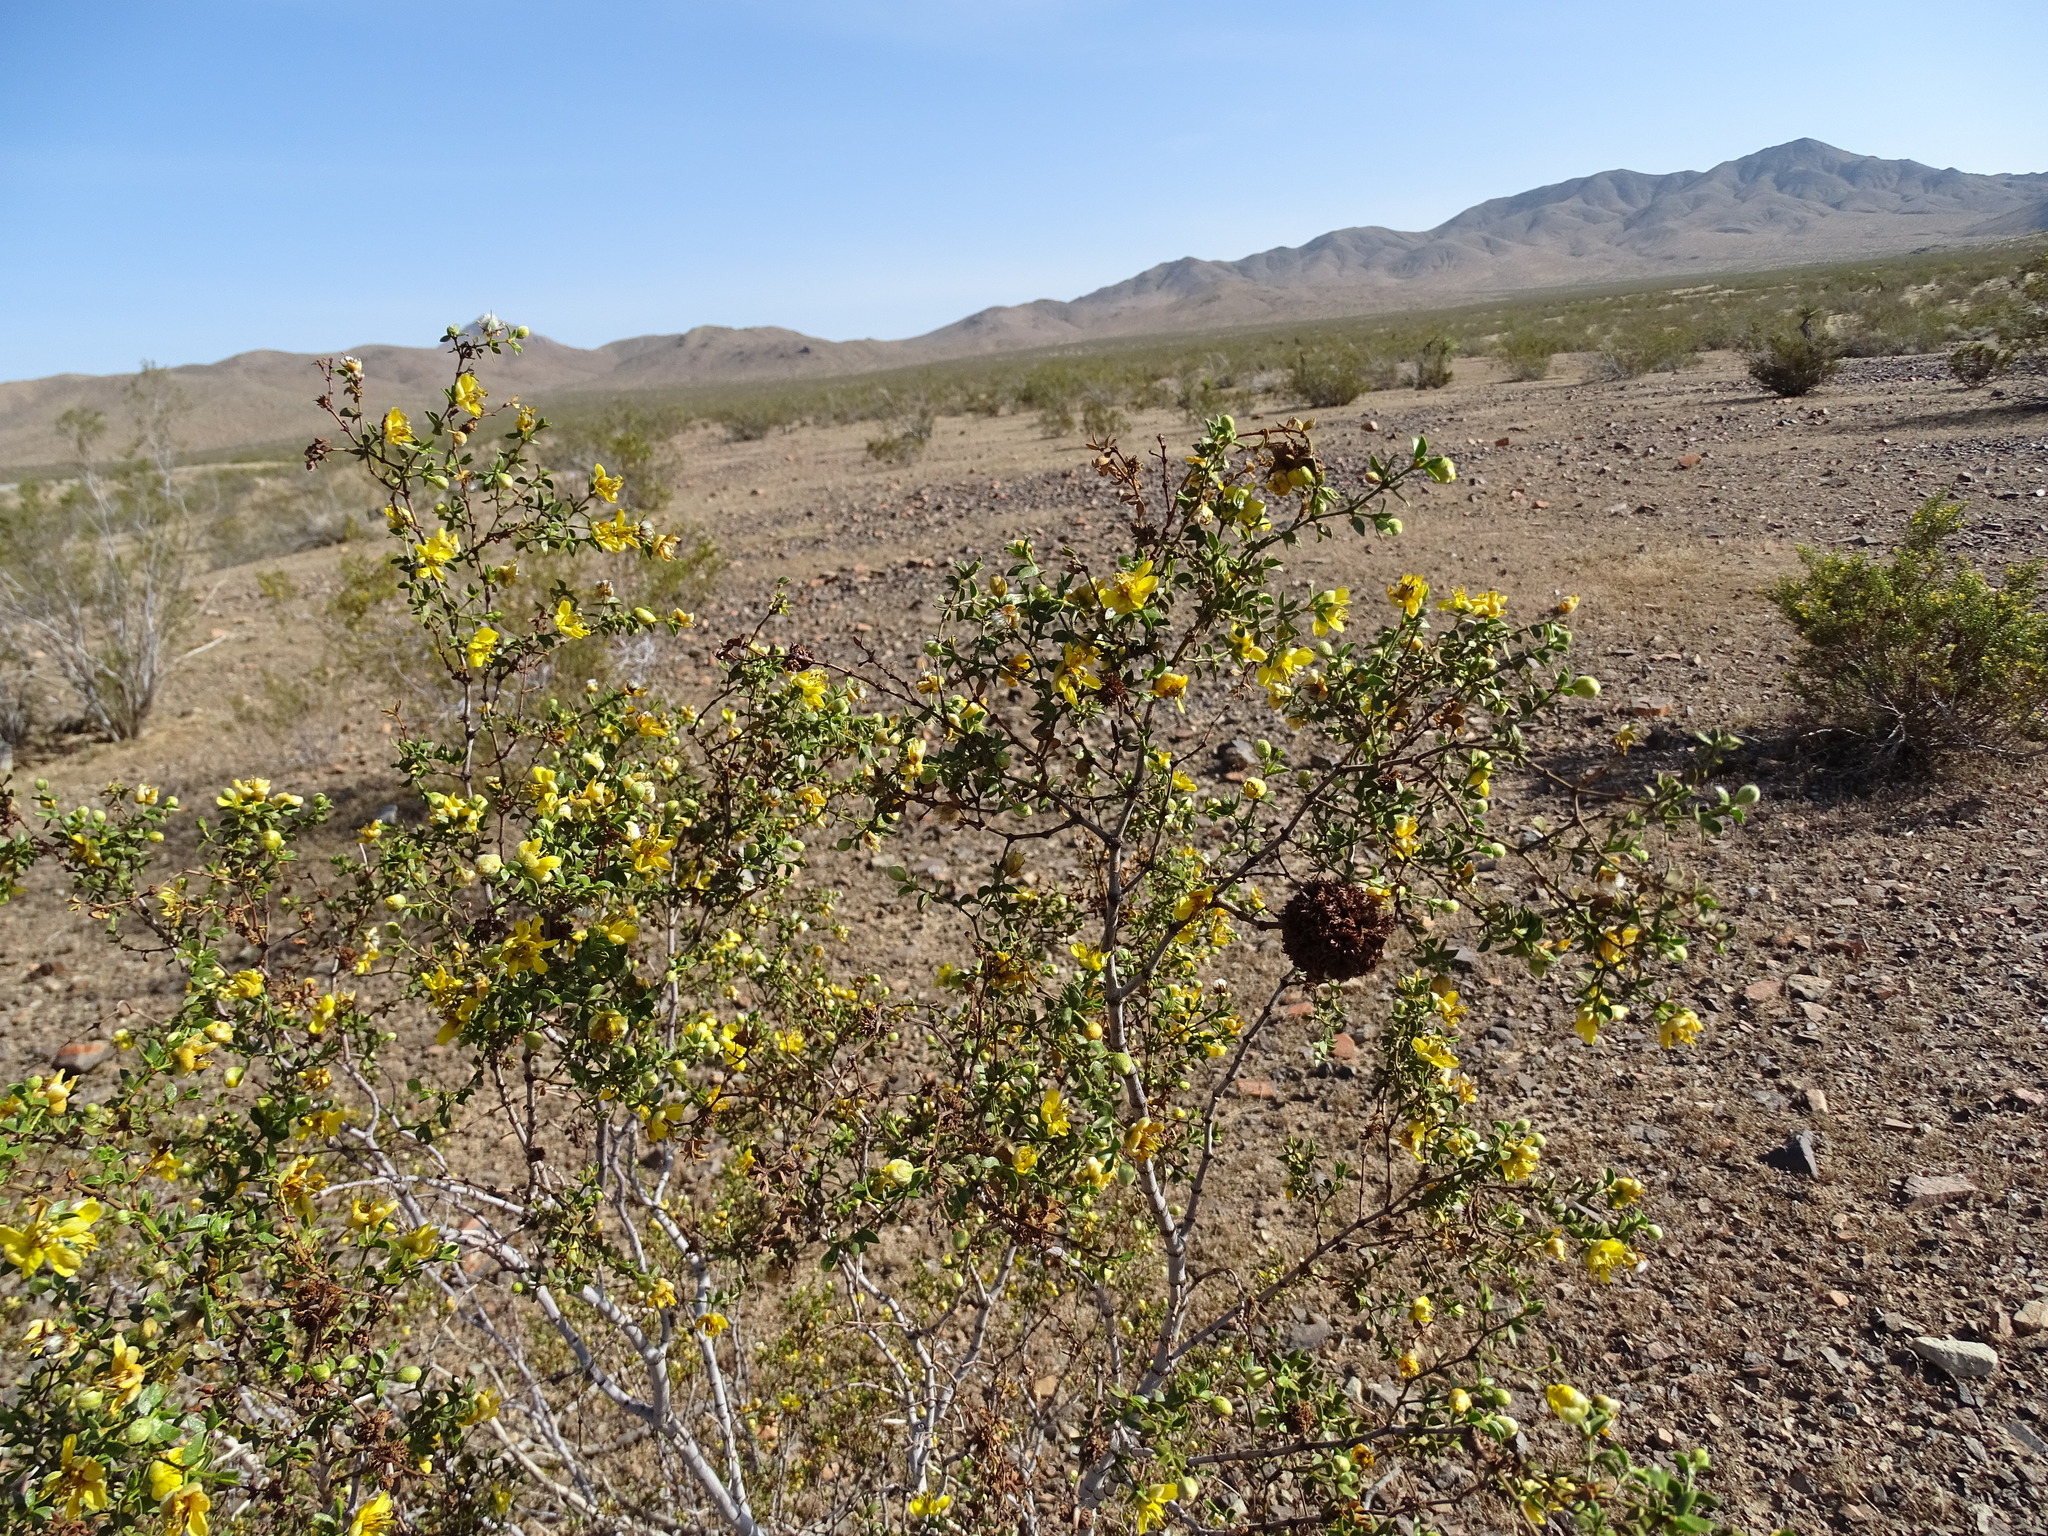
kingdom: Animalia
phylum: Arthropoda
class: Insecta
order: Diptera
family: Cecidomyiidae
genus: Asphondylia
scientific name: Asphondylia auripila
